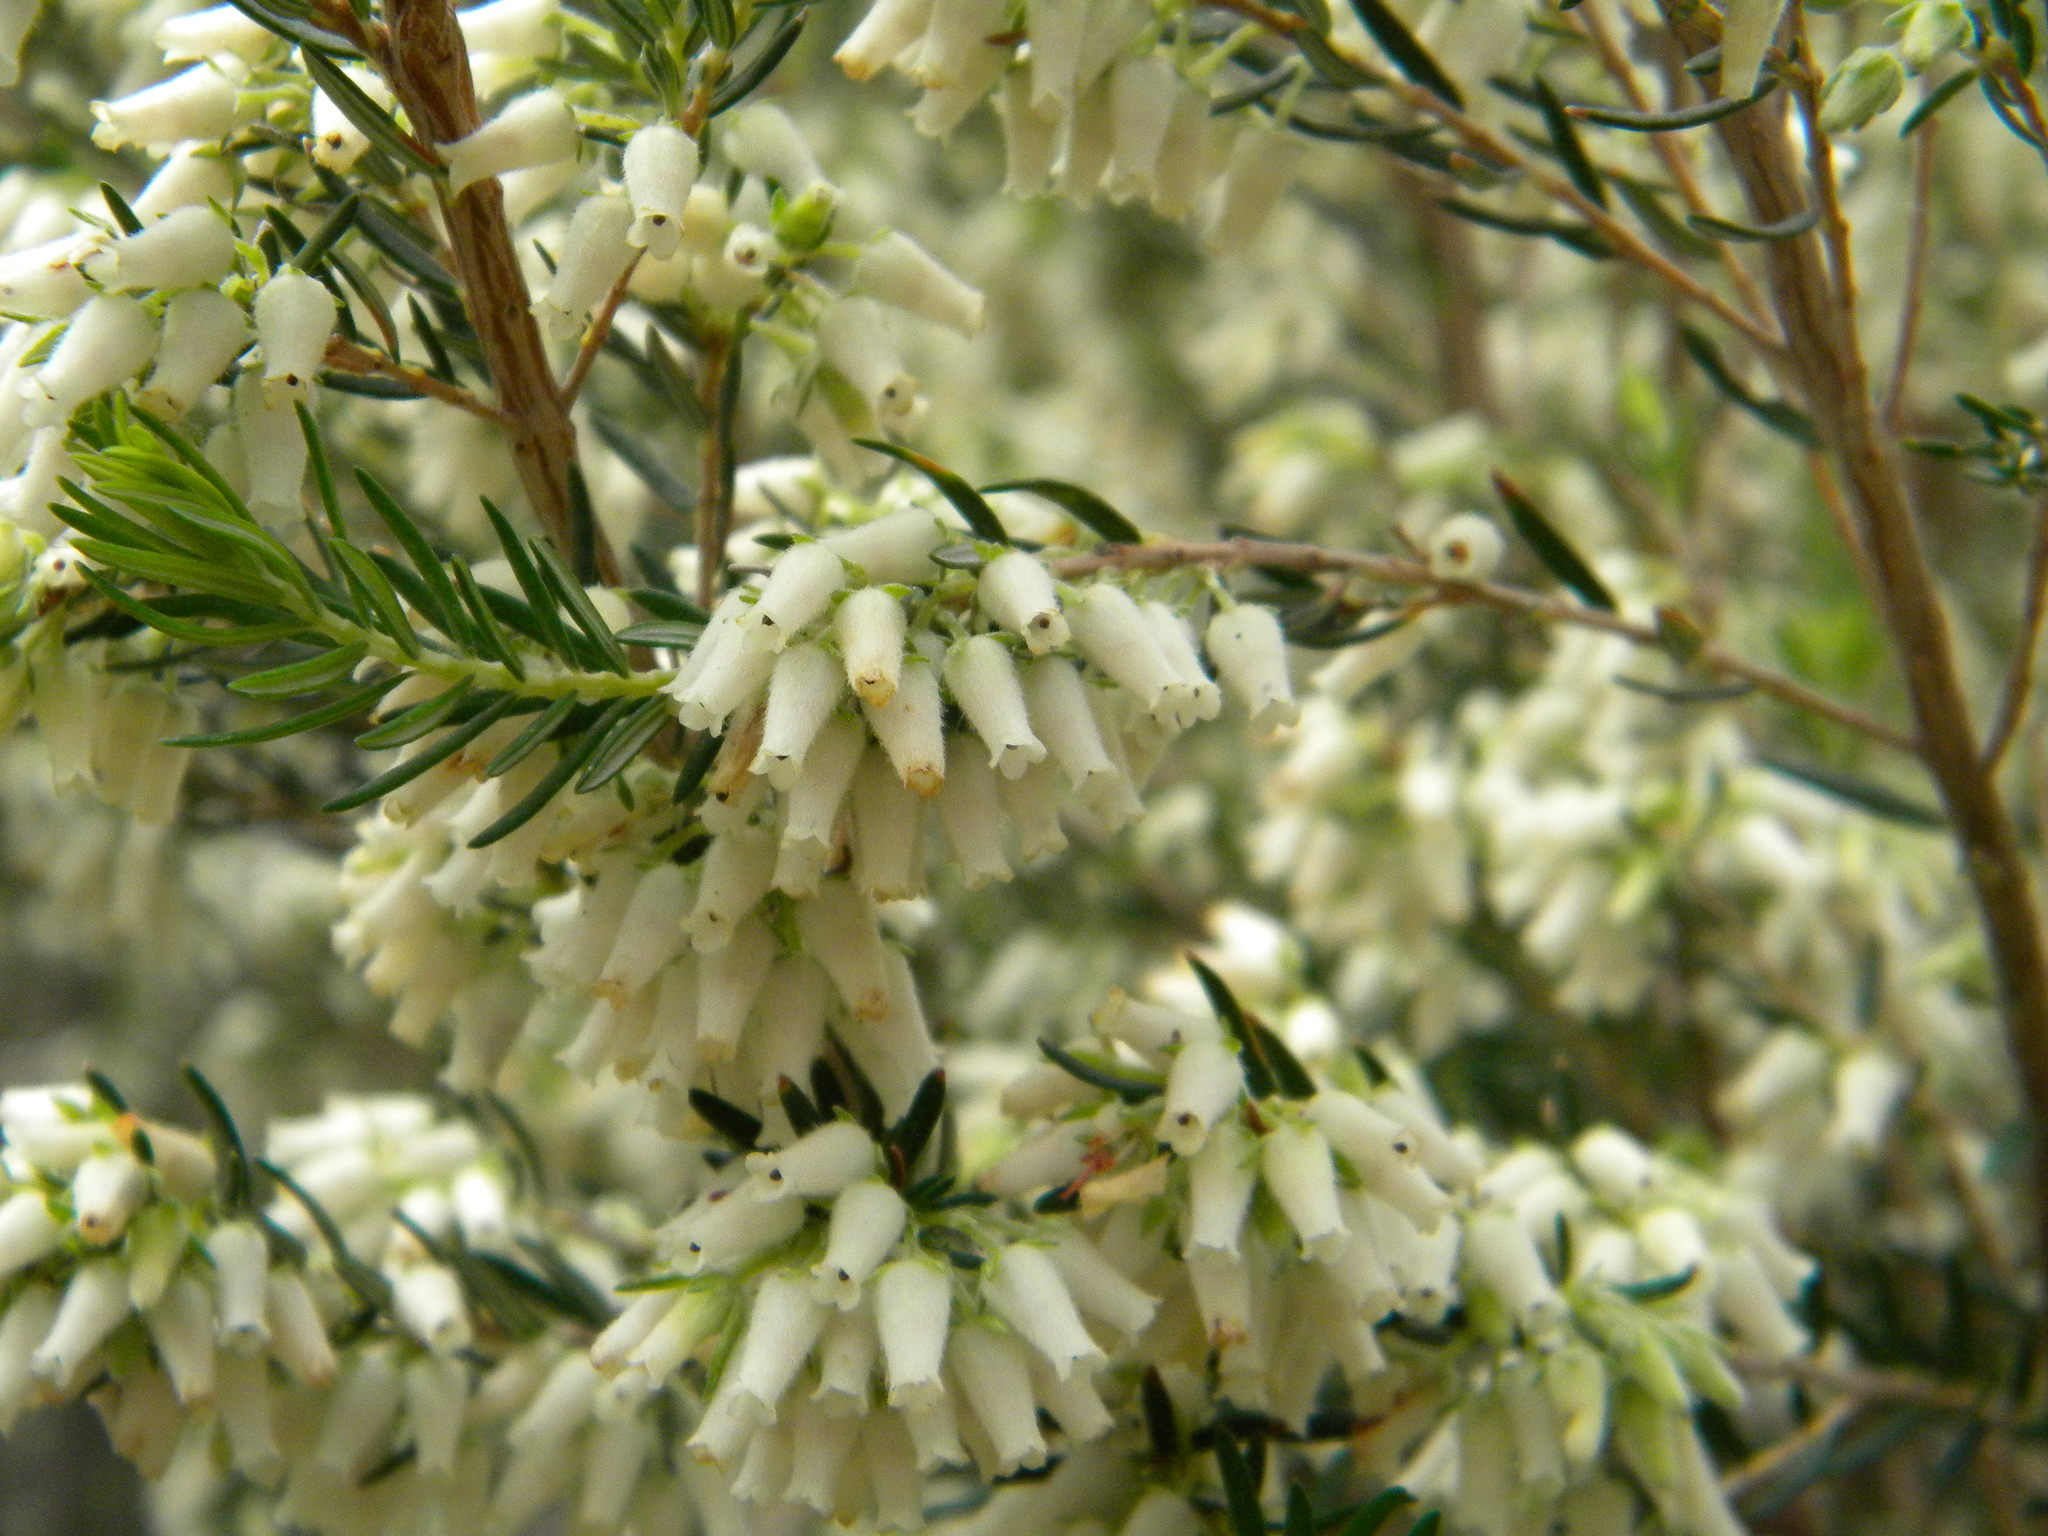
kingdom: Plantae
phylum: Tracheophyta
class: Magnoliopsida
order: Ericales
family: Ericaceae
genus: Erica
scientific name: Erica caffra
